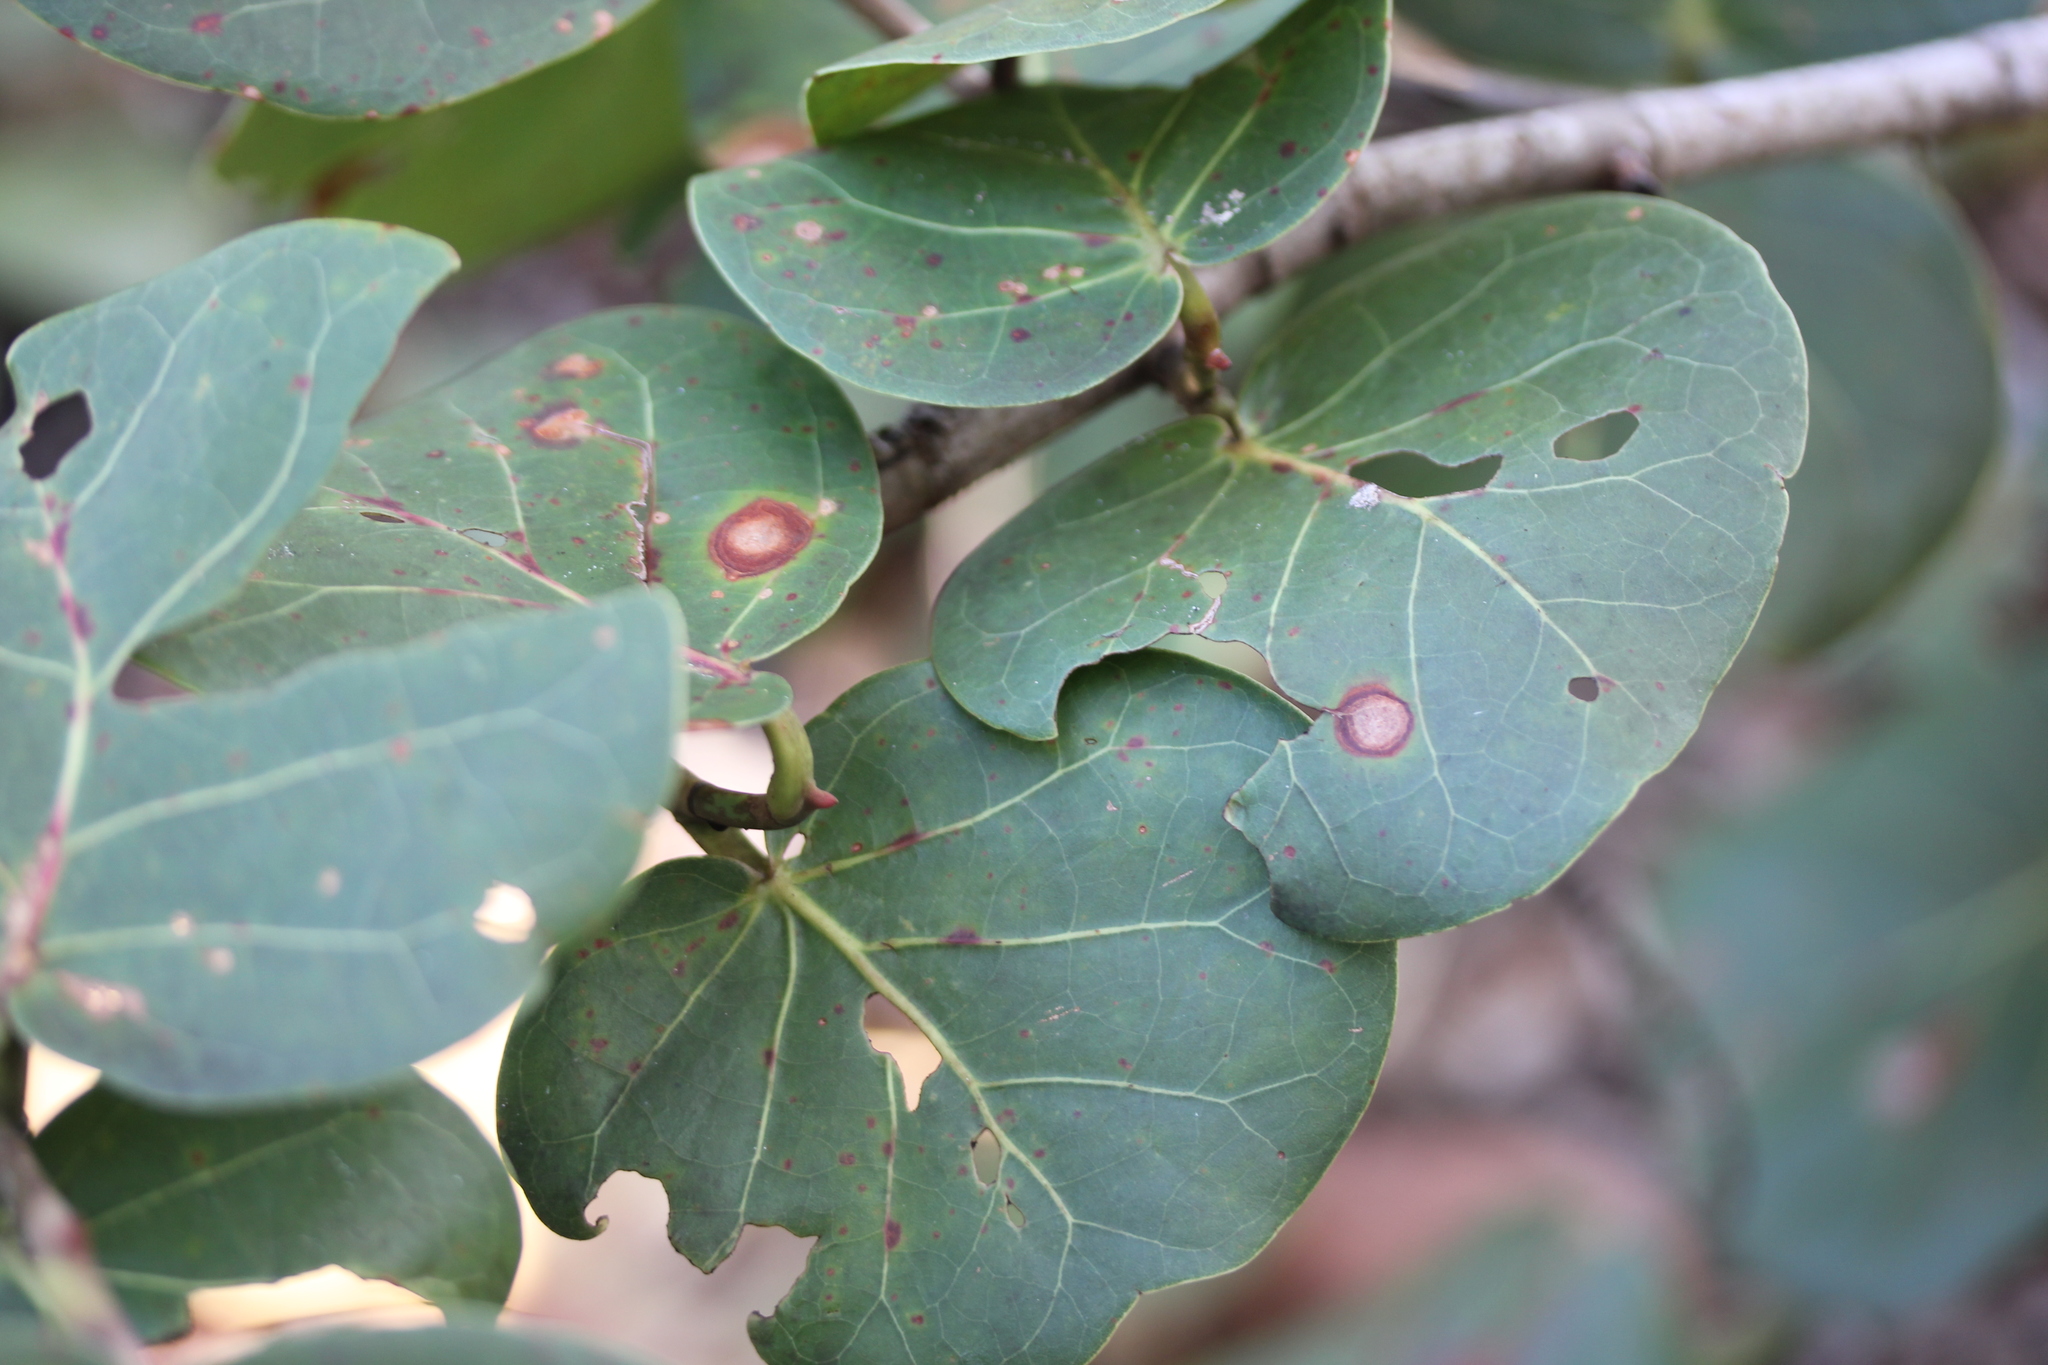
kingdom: Plantae
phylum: Tracheophyta
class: Magnoliopsida
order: Caryophyllales
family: Polygonaceae
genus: Coccoloba
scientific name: Coccoloba uvifera
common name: Seagrape
